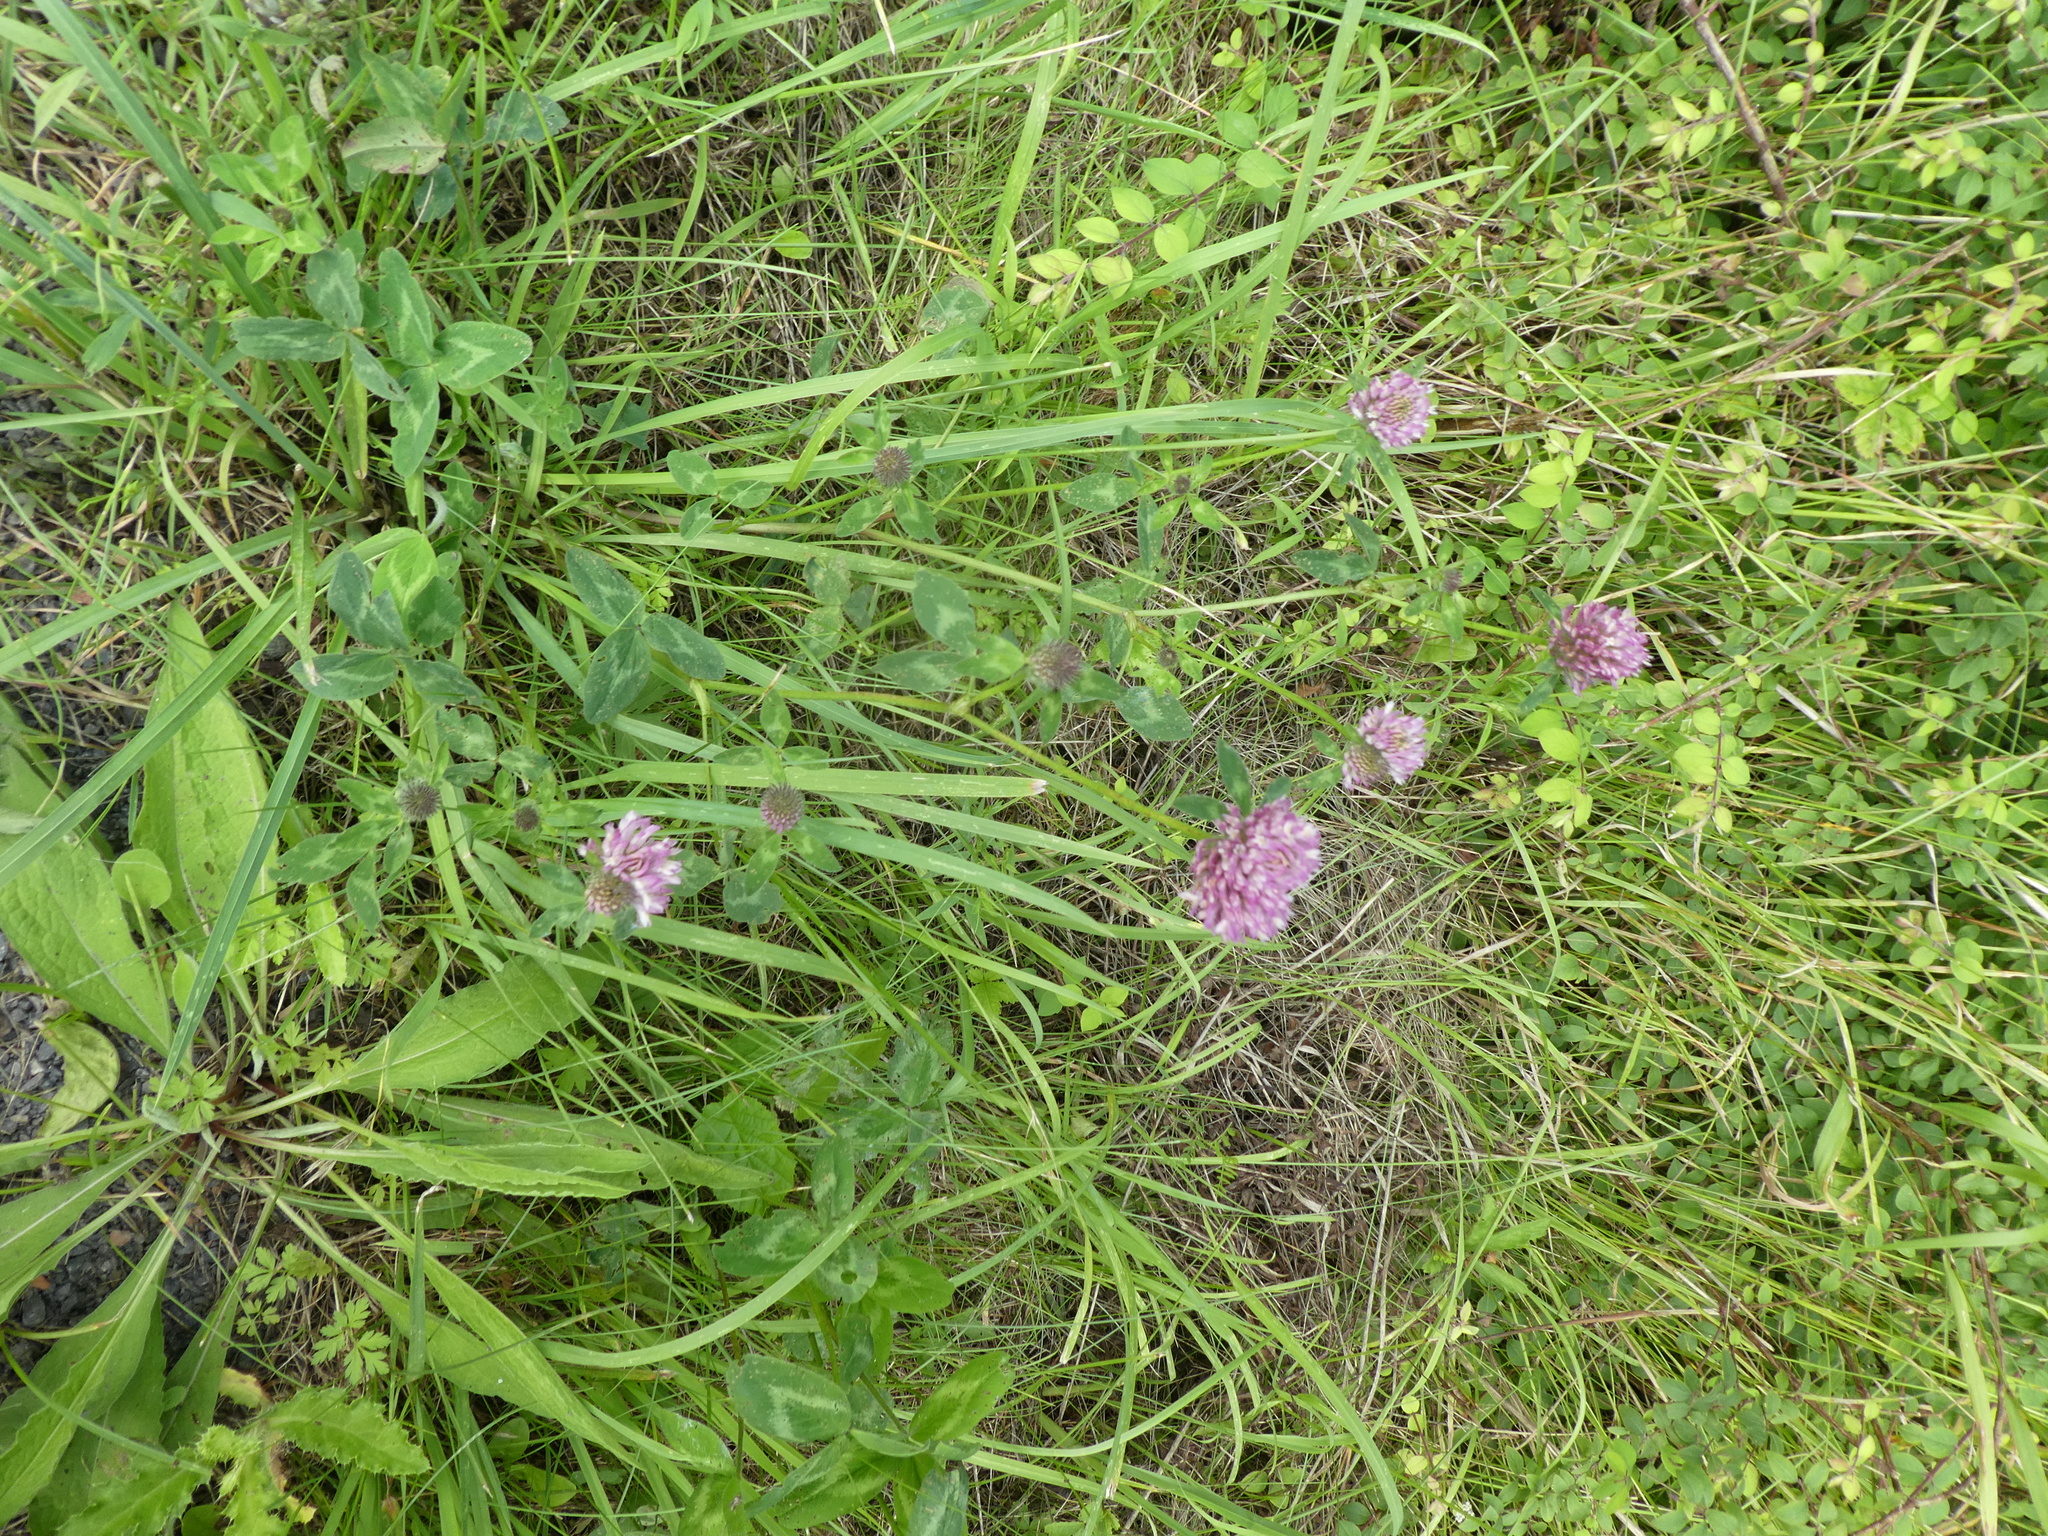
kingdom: Plantae
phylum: Tracheophyta
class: Magnoliopsida
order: Fabales
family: Fabaceae
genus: Trifolium
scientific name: Trifolium pratense
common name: Red clover
